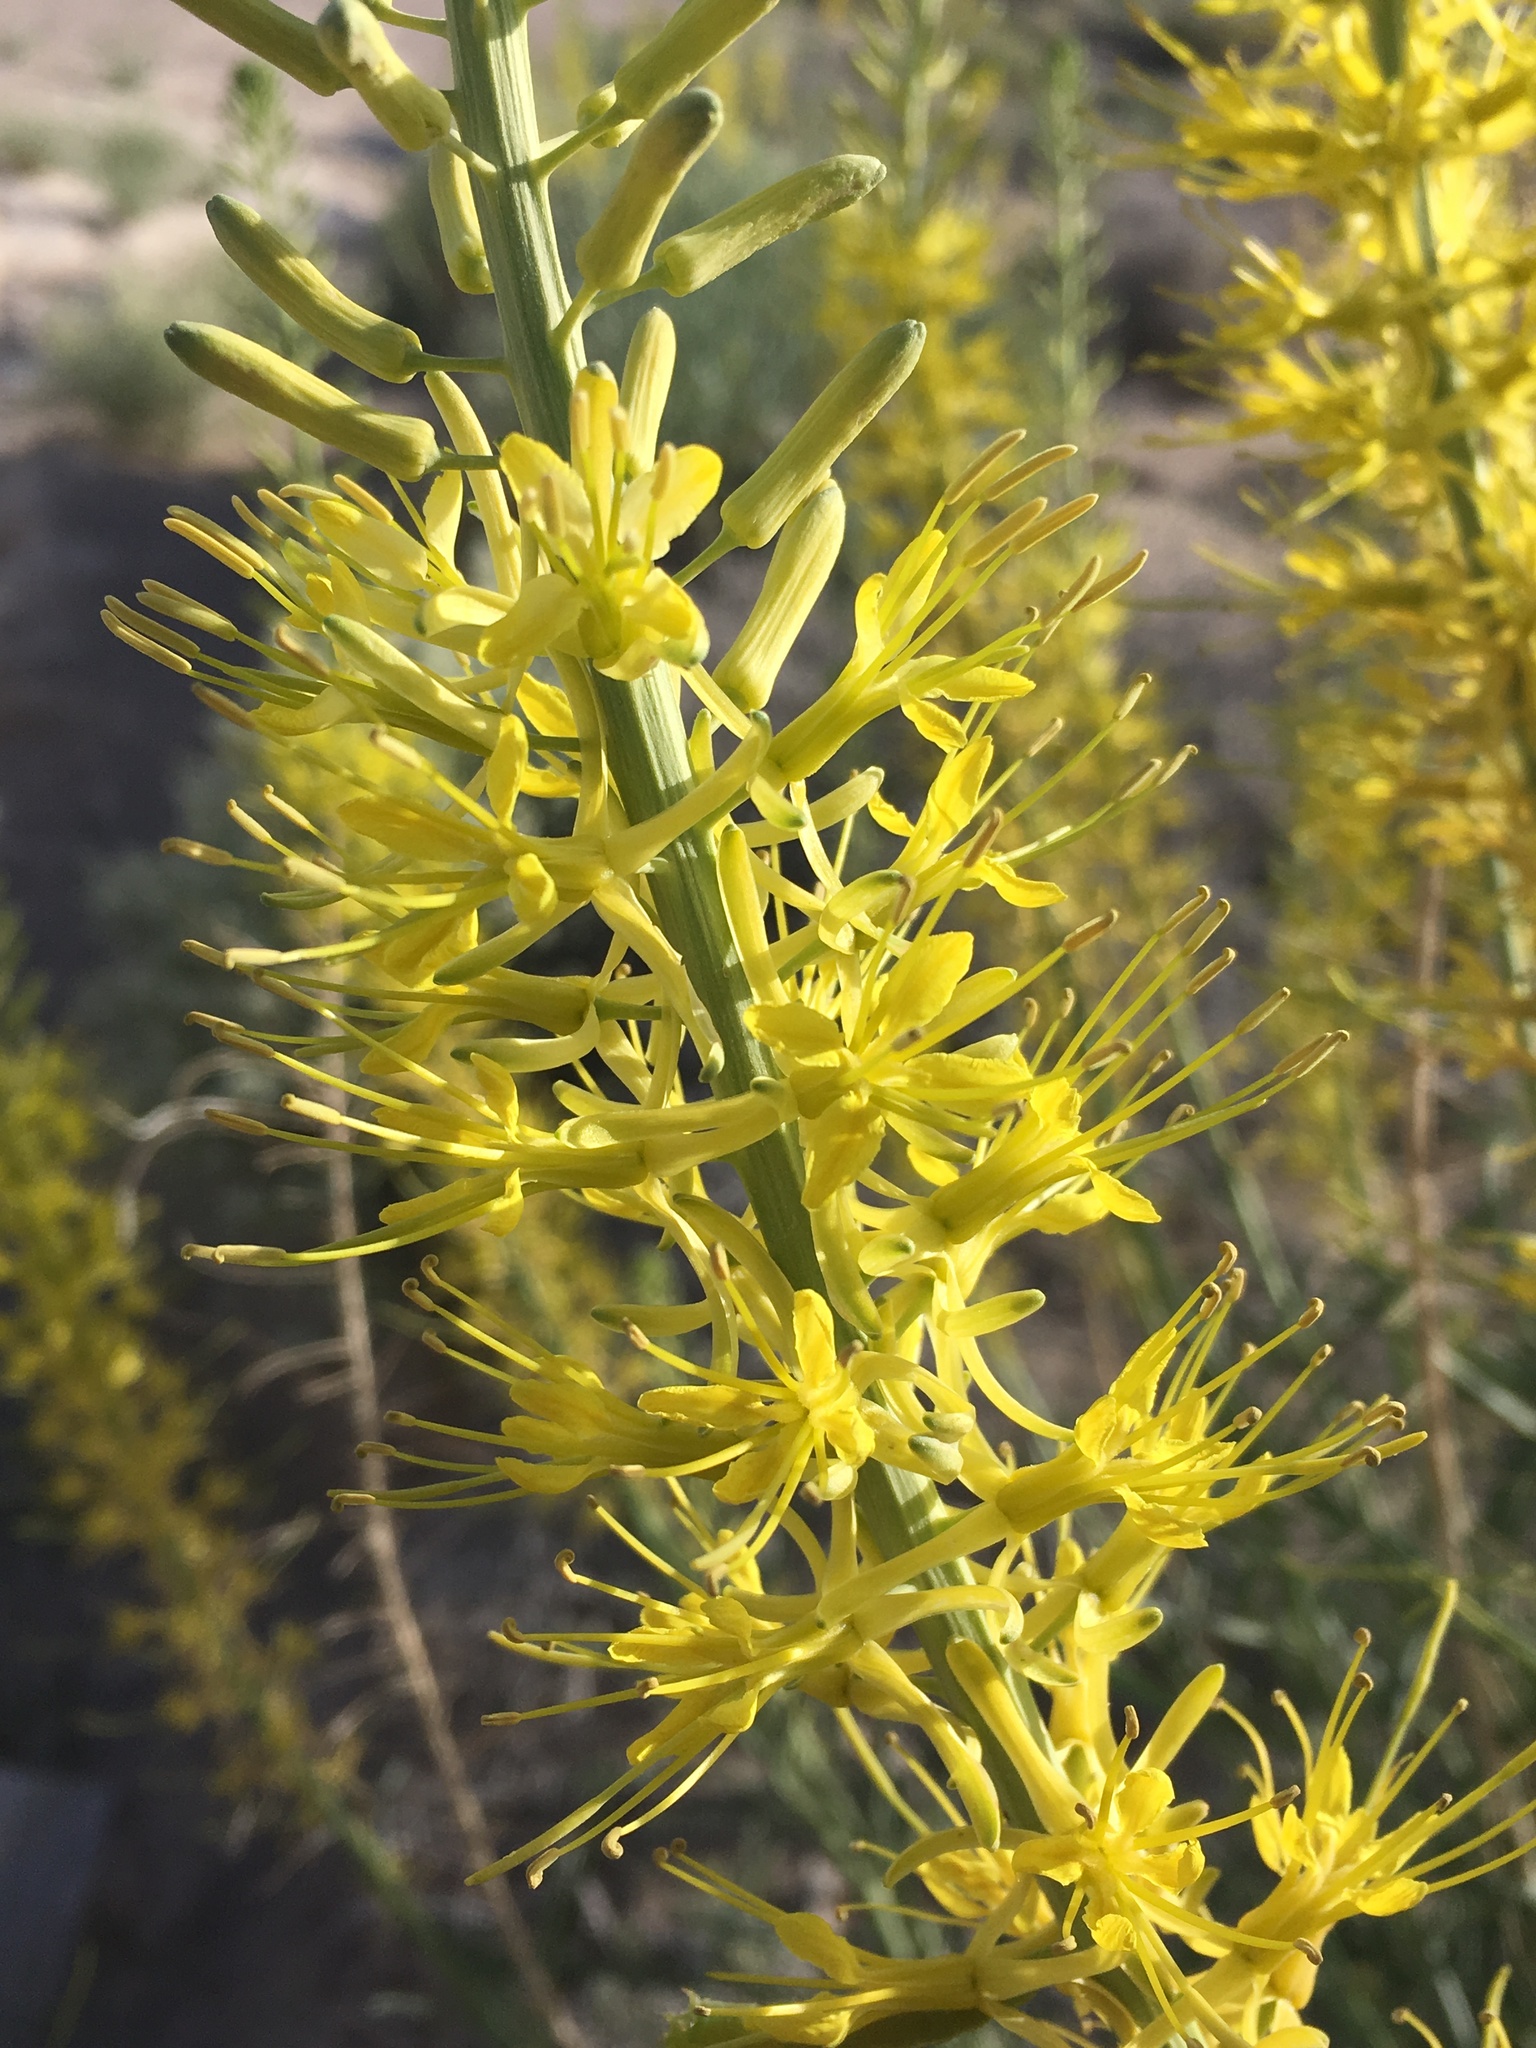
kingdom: Plantae
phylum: Tracheophyta
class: Magnoliopsida
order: Brassicales
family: Brassicaceae
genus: Stanleya
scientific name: Stanleya pinnata
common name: Prince's-plume
